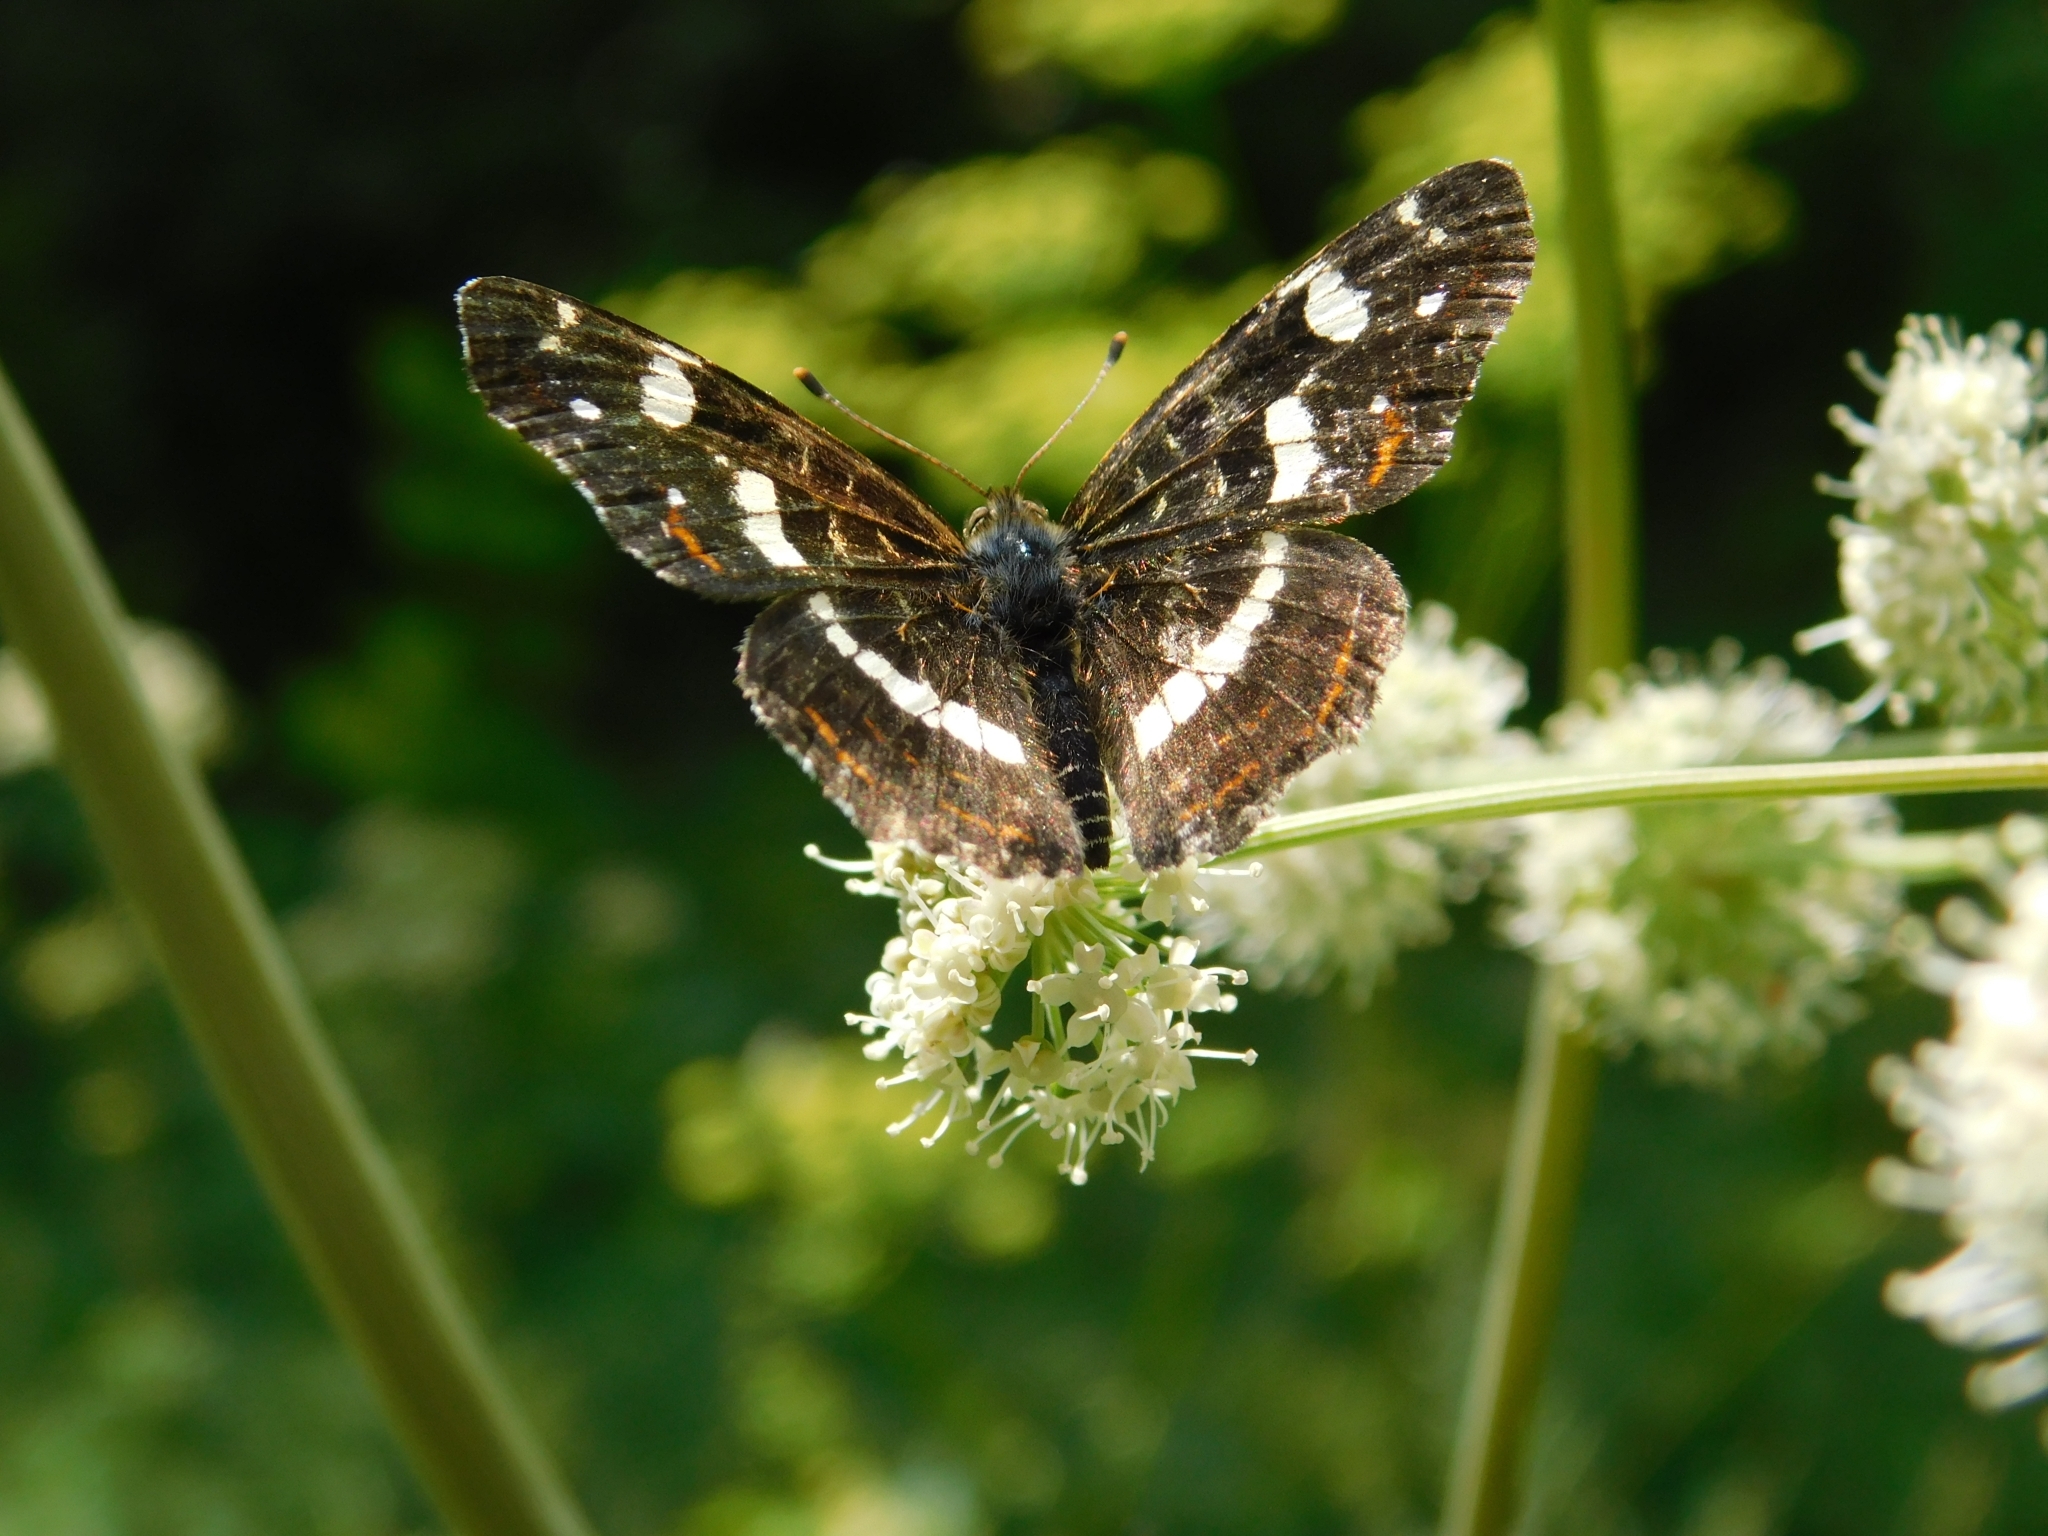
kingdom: Animalia
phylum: Arthropoda
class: Insecta
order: Lepidoptera
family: Nymphalidae
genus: Araschnia
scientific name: Araschnia levana
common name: Map butterfly
